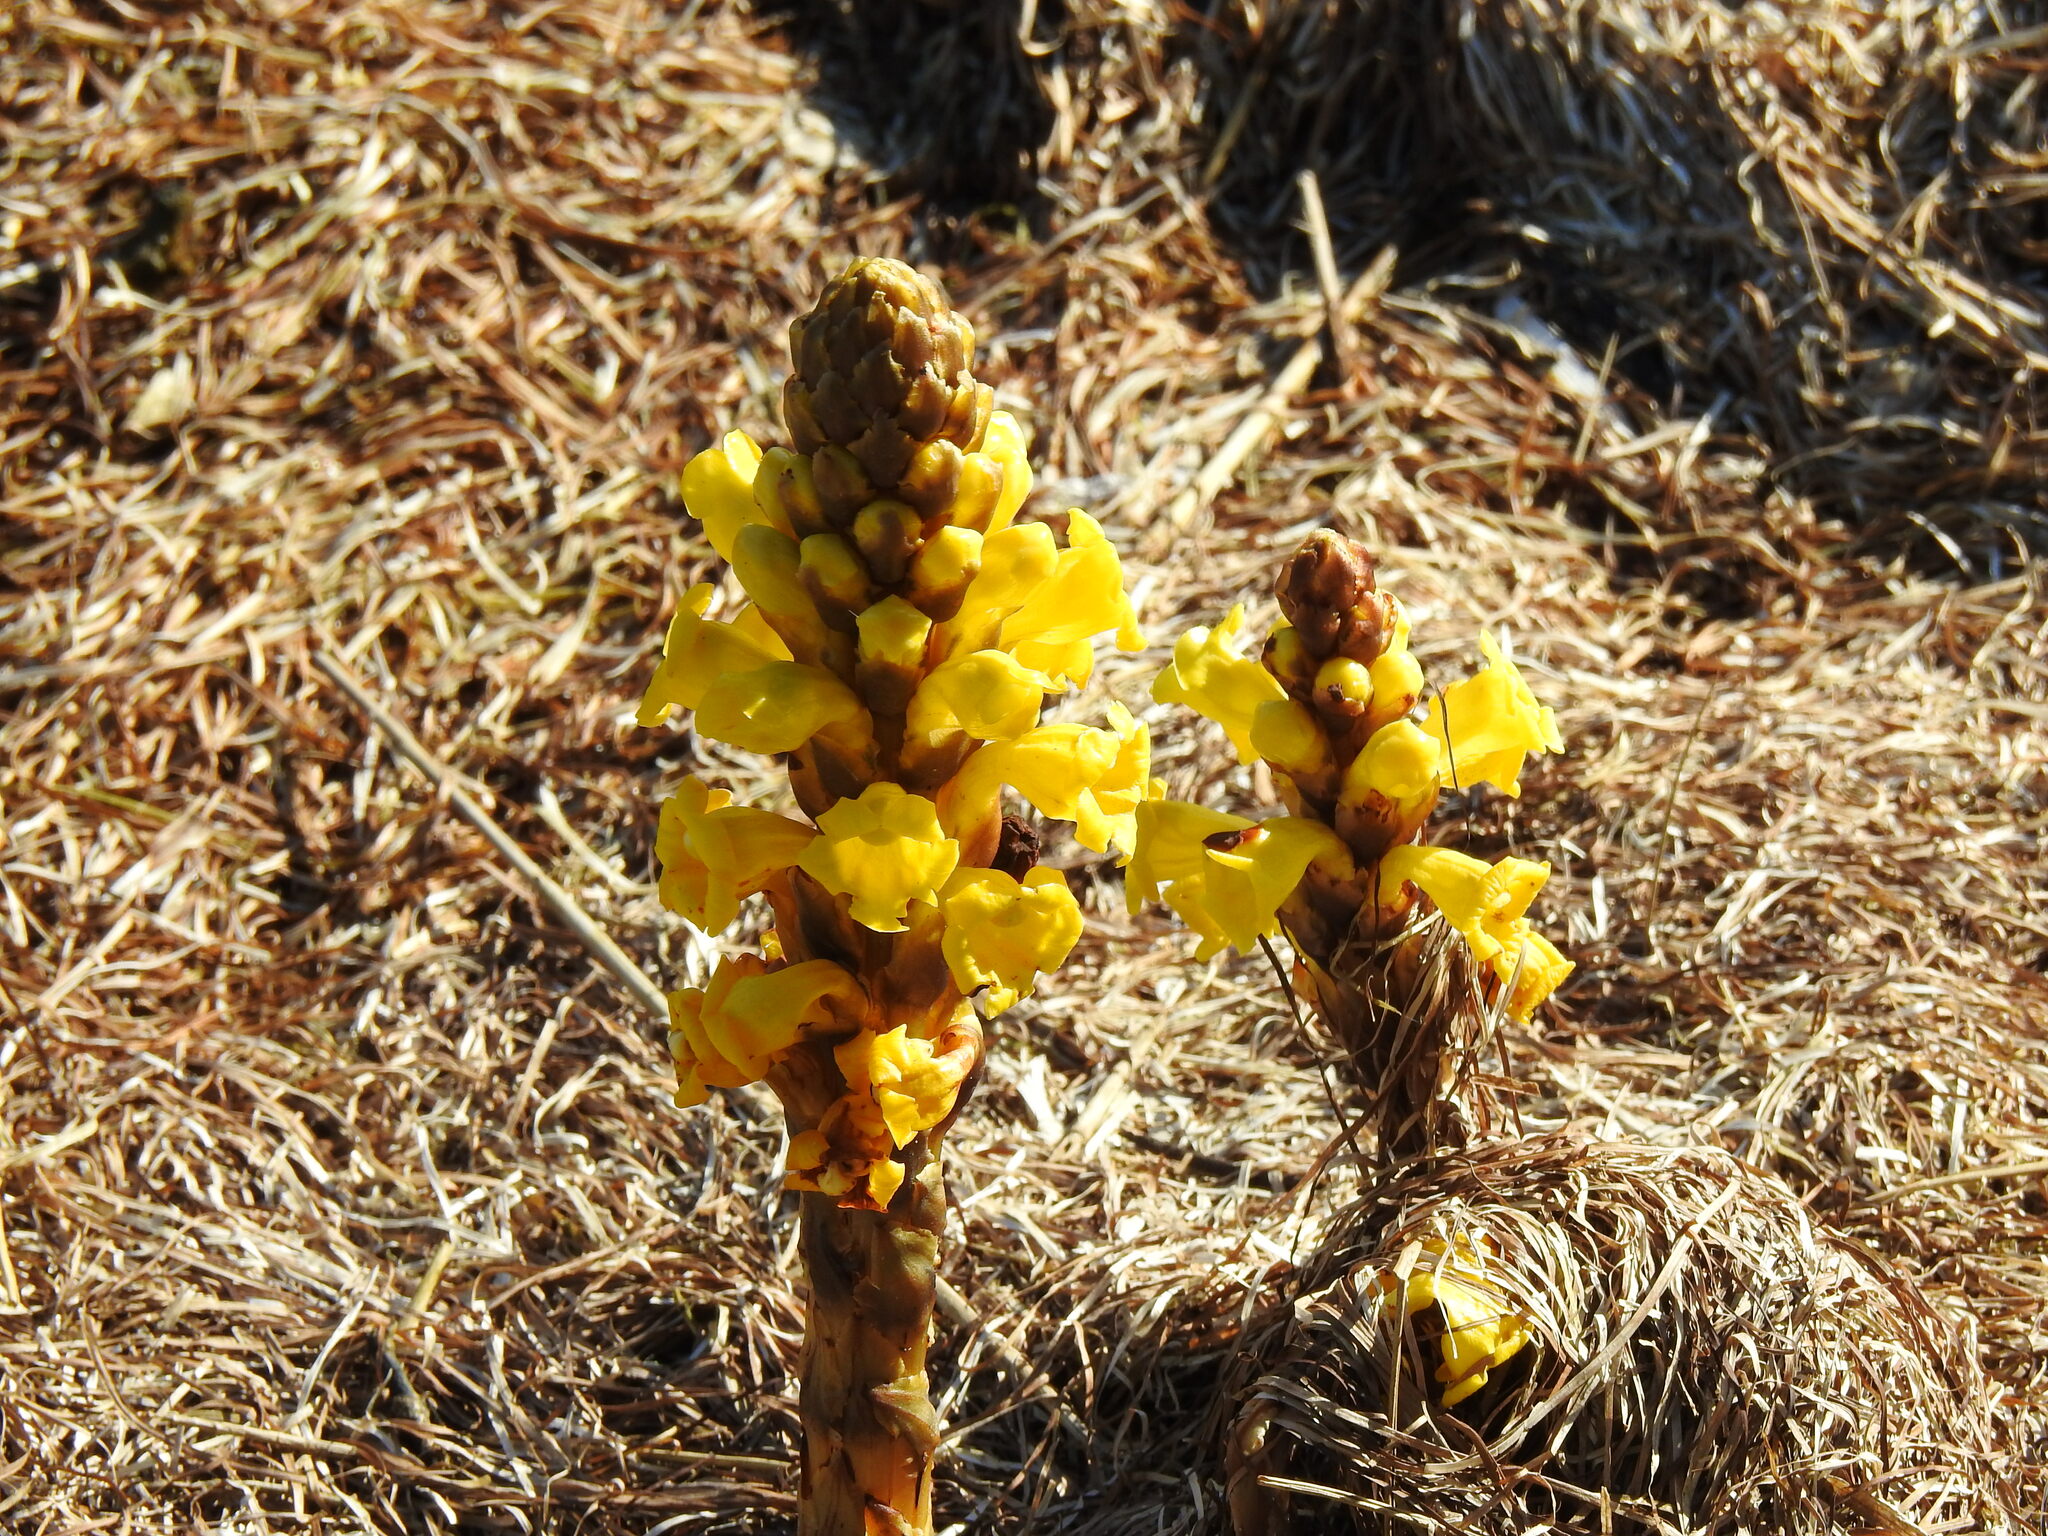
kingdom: Plantae
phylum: Tracheophyta
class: Magnoliopsida
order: Lamiales
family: Orobanchaceae
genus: Cistanche
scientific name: Cistanche phelypaea
